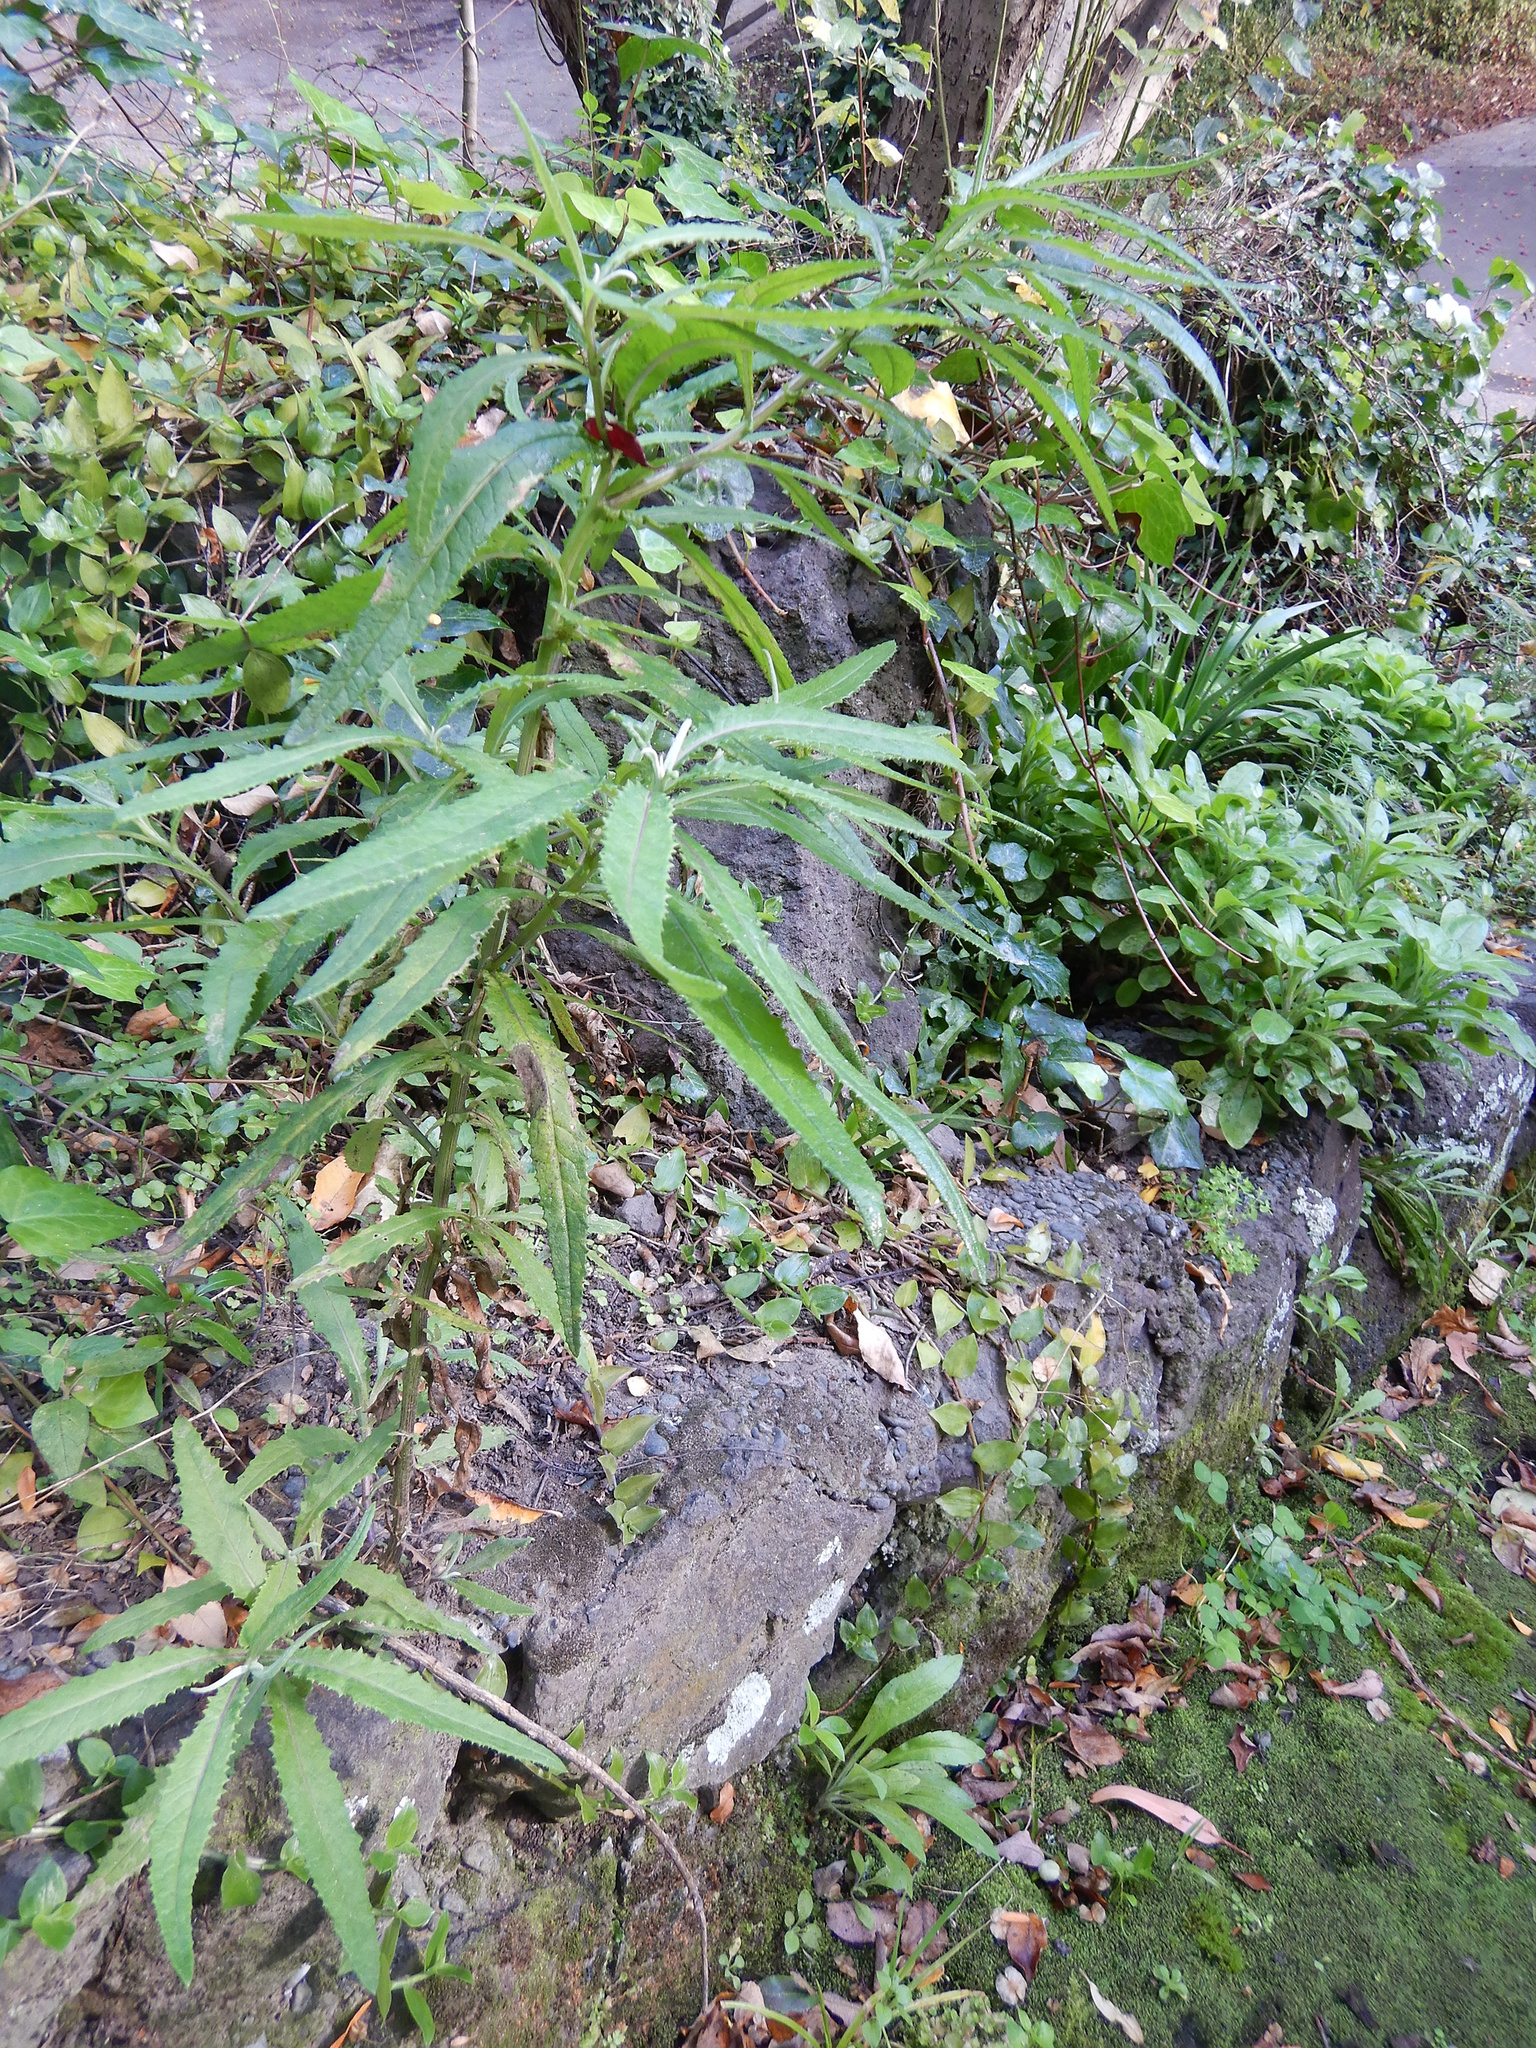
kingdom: Plantae
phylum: Tracheophyta
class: Magnoliopsida
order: Asterales
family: Asteraceae
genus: Senecio
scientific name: Senecio minimus
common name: Toothed fireweed
